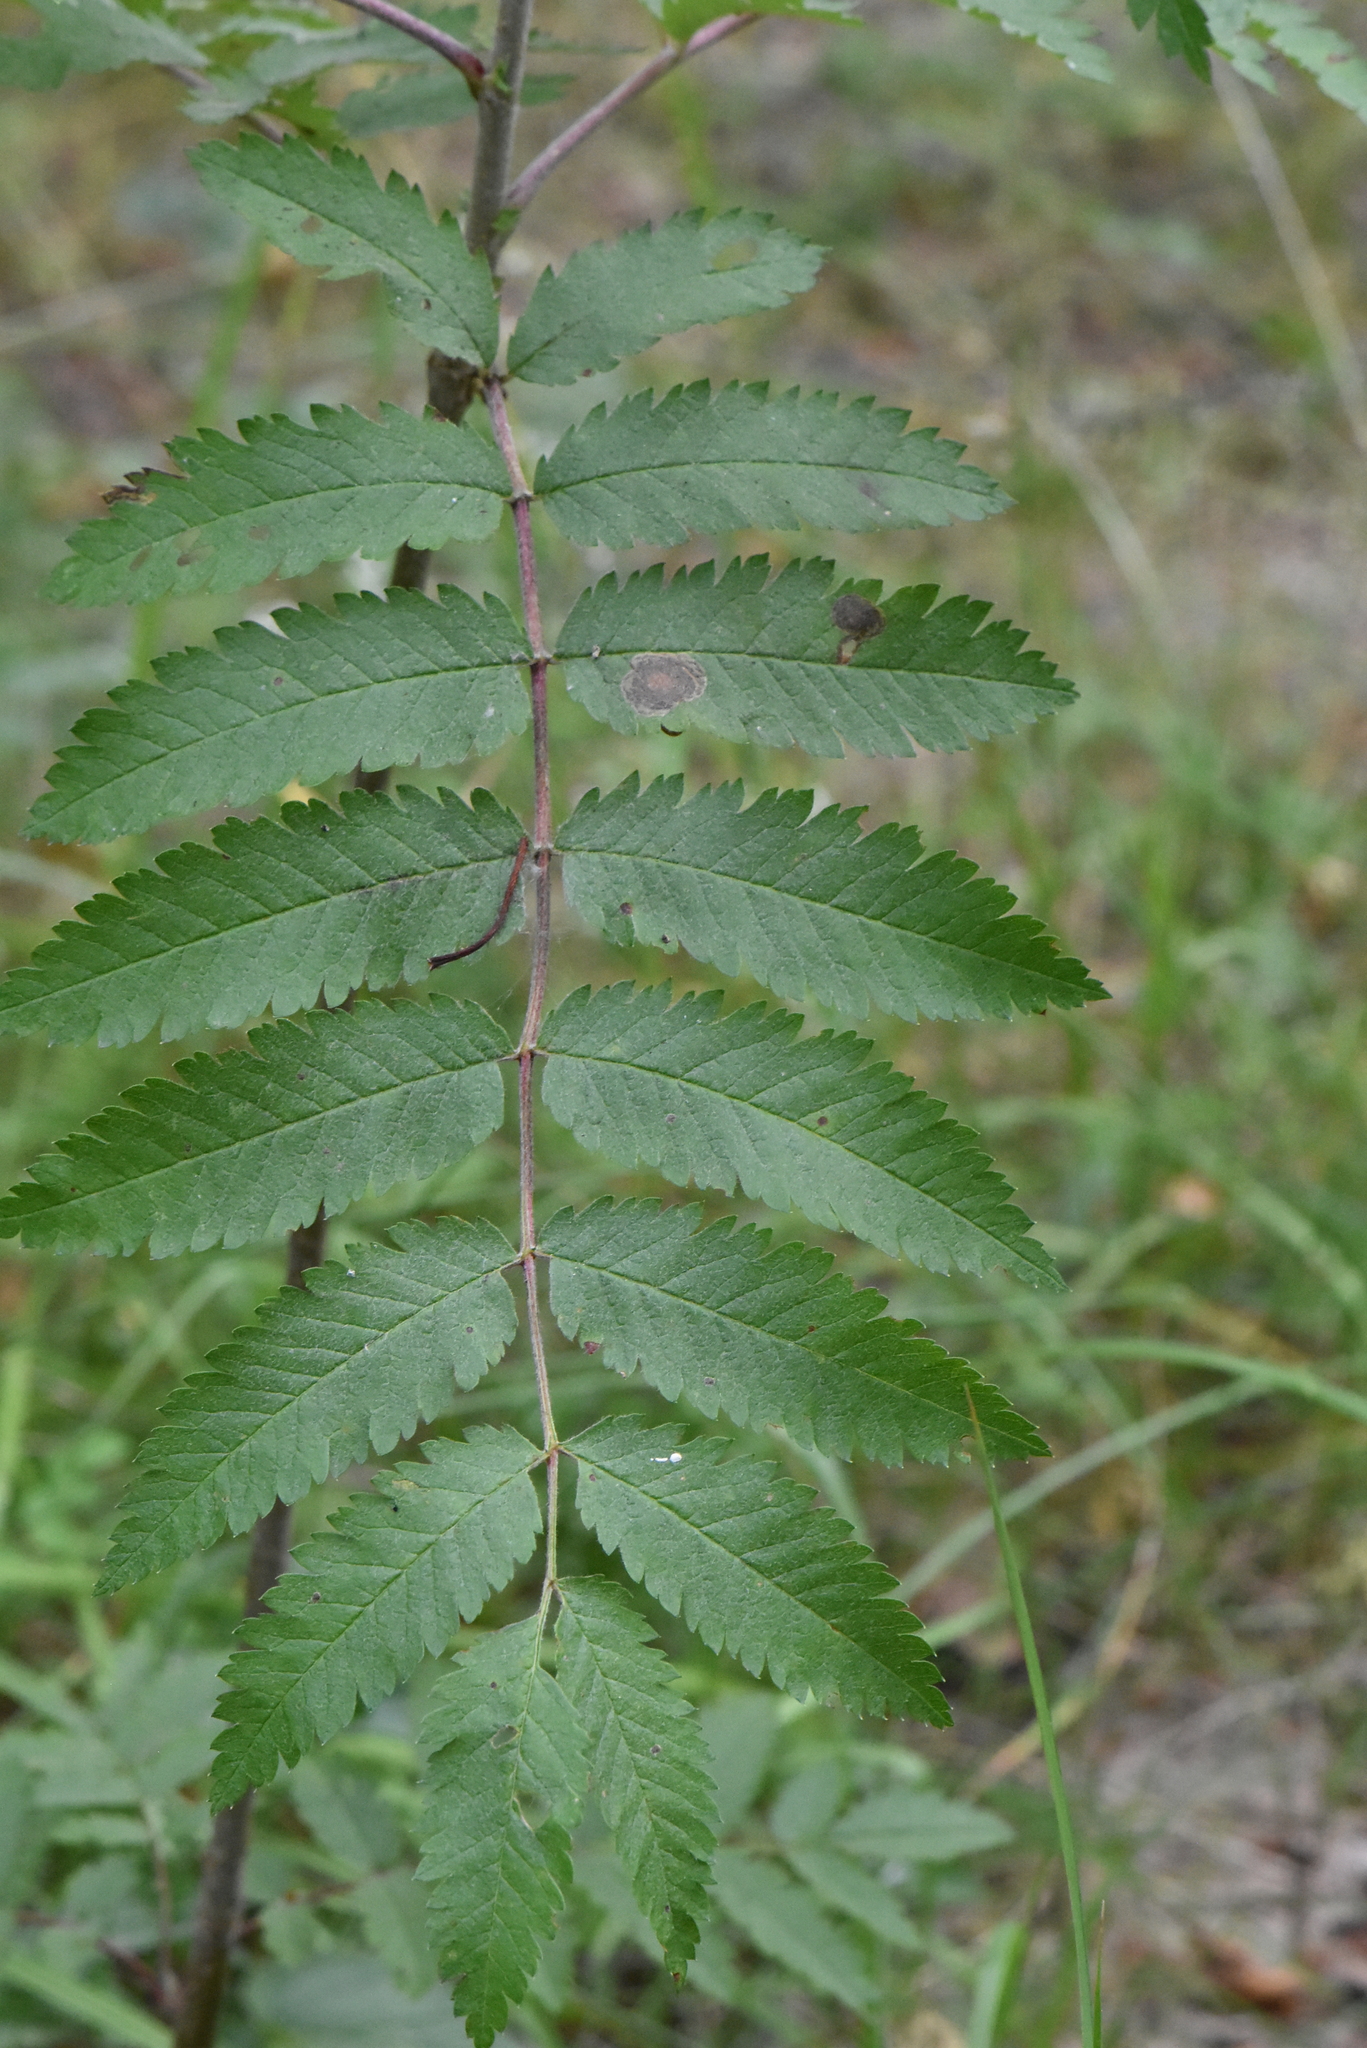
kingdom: Plantae
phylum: Tracheophyta
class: Magnoliopsida
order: Rosales
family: Rosaceae
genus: Sorbus
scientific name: Sorbus aucuparia
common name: Rowan
